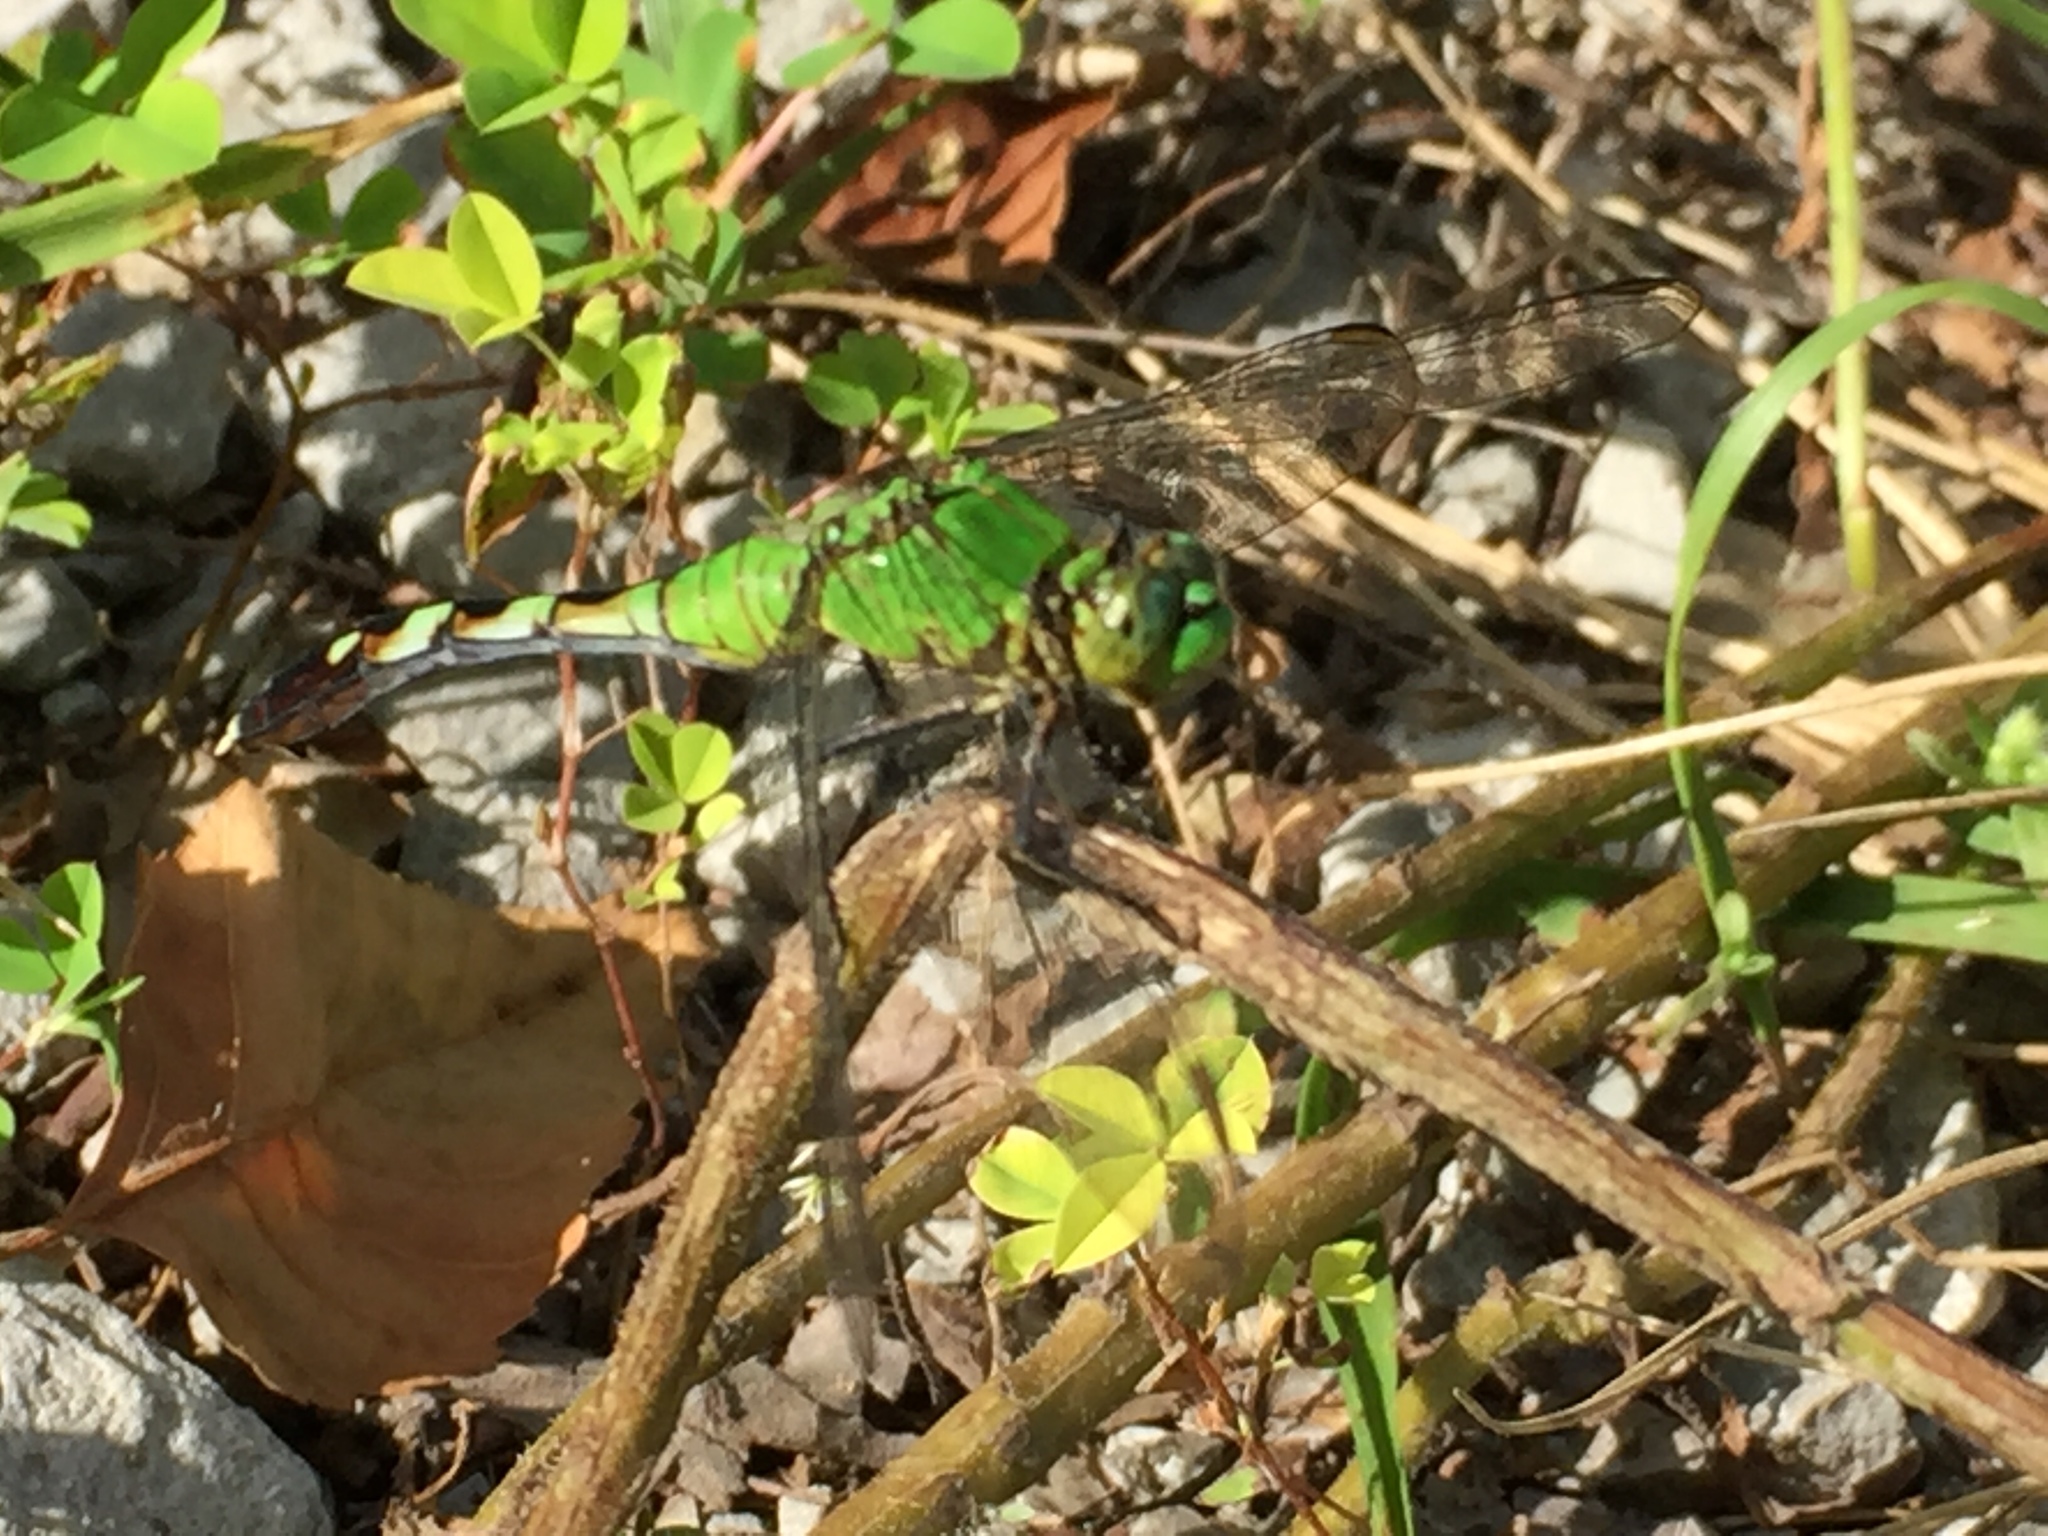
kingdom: Animalia
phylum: Arthropoda
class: Insecta
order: Odonata
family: Libellulidae
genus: Erythemis
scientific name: Erythemis simplicicollis
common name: Eastern pondhawk
